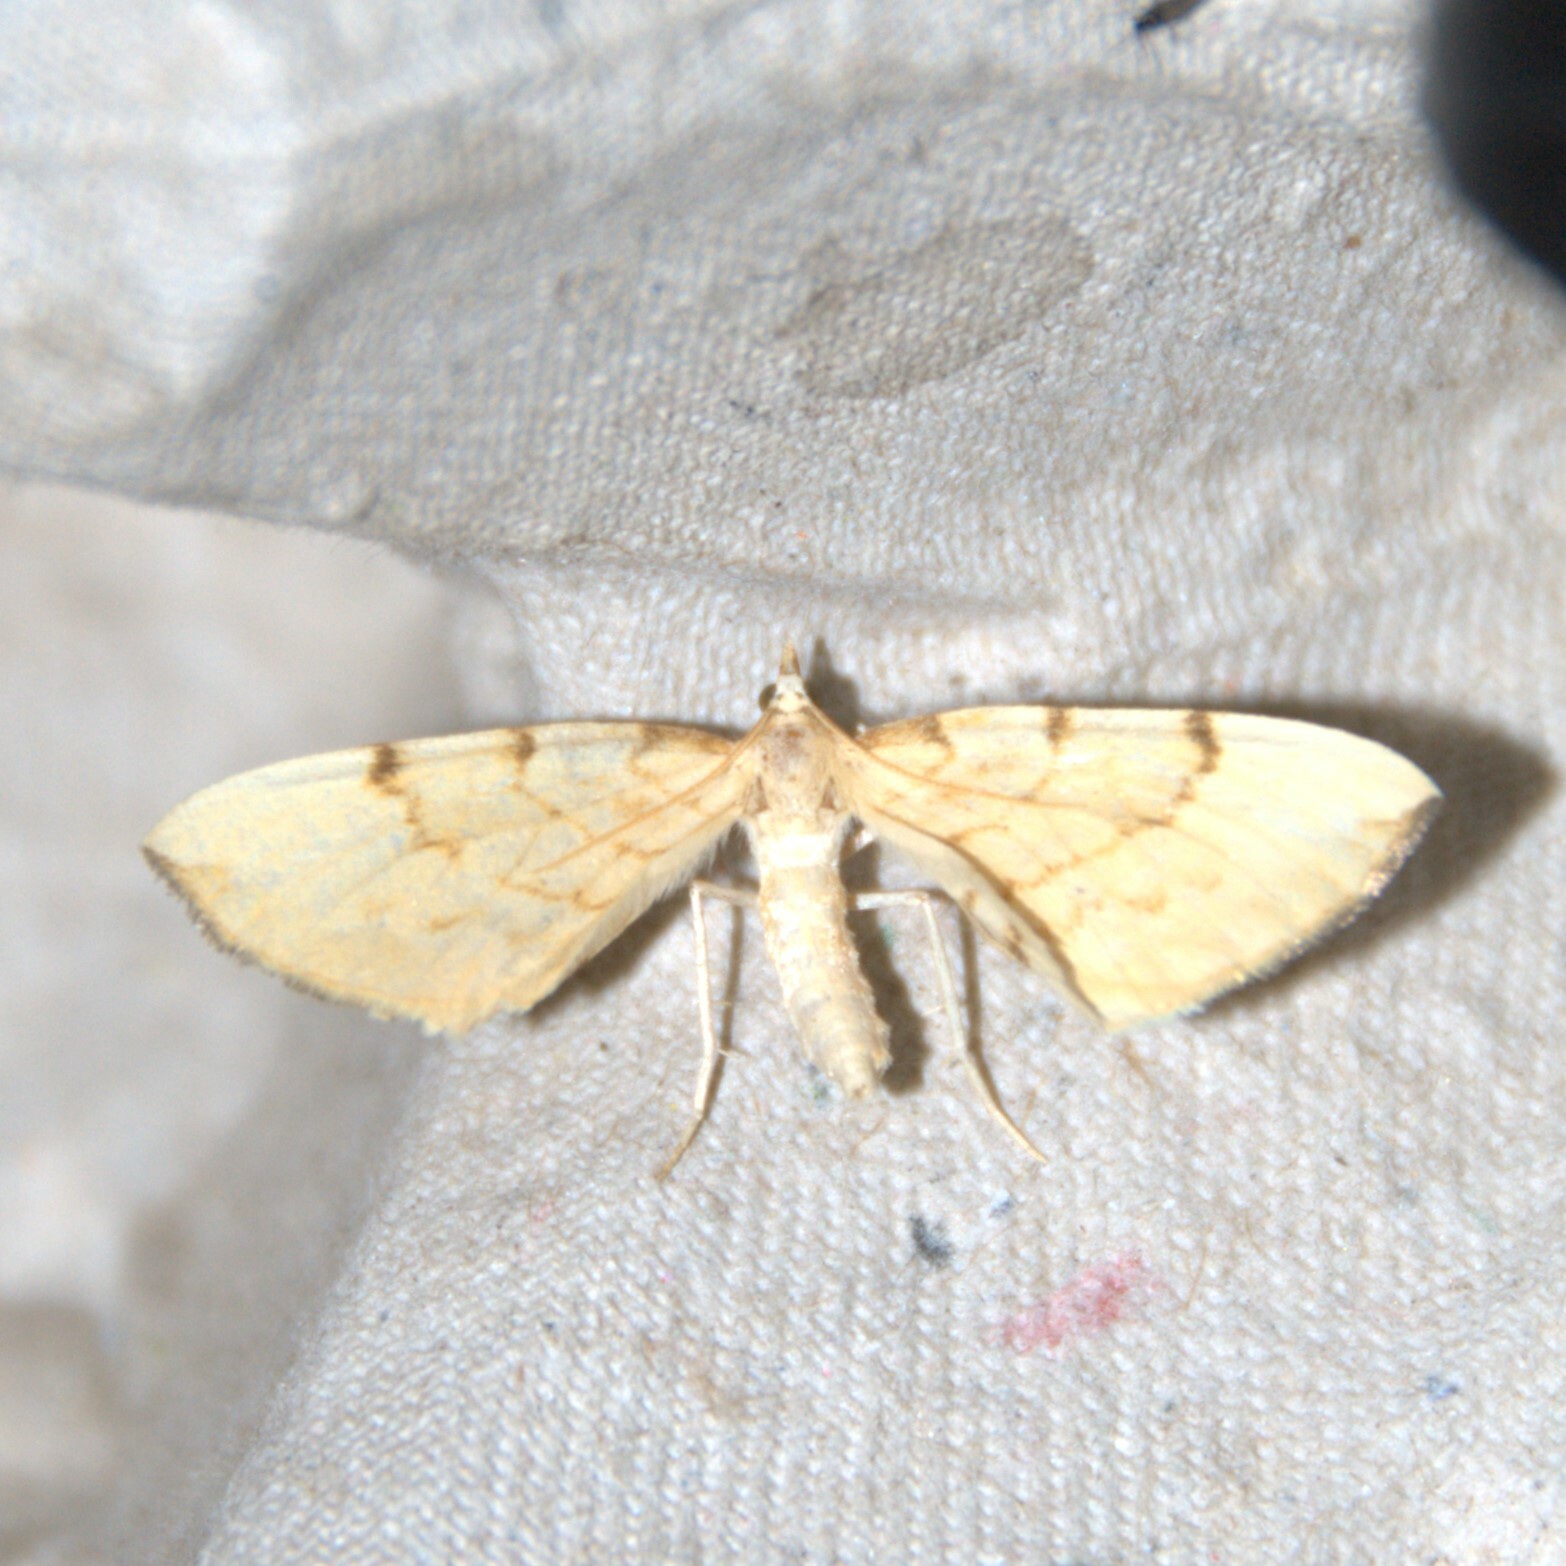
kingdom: Animalia
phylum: Arthropoda
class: Insecta
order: Lepidoptera
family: Geometridae
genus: Eulithis
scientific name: Eulithis pyraliata
